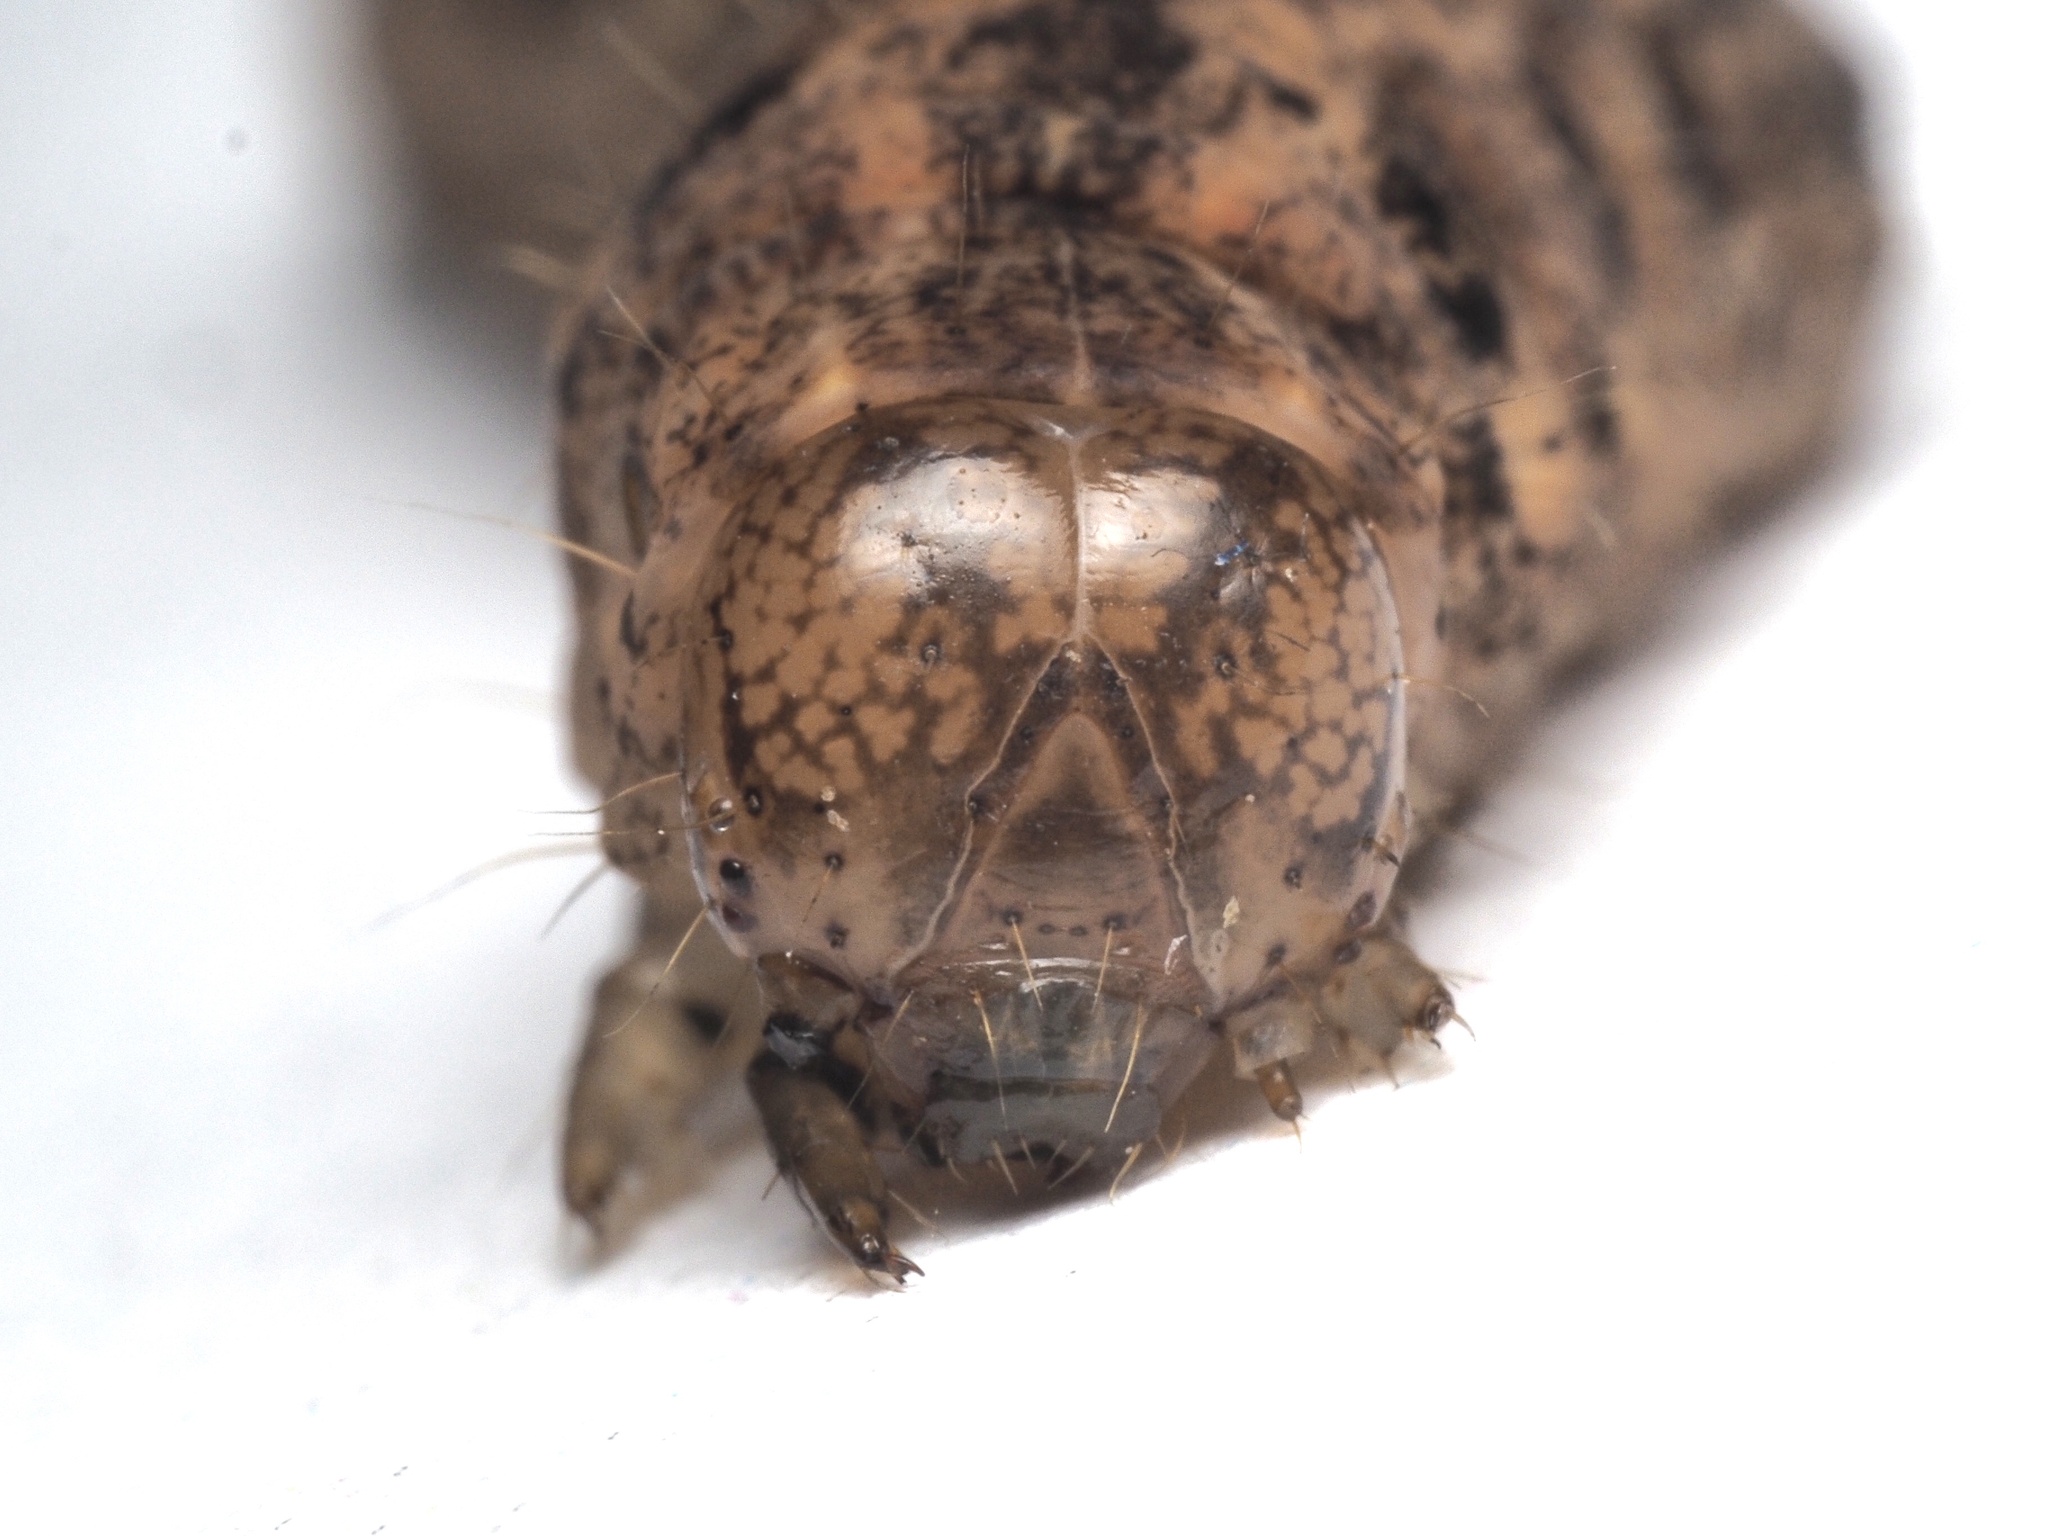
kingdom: Animalia
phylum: Arthropoda
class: Insecta
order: Lepidoptera
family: Noctuidae
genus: Polia
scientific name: Polia nebulosa
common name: Grey arches
